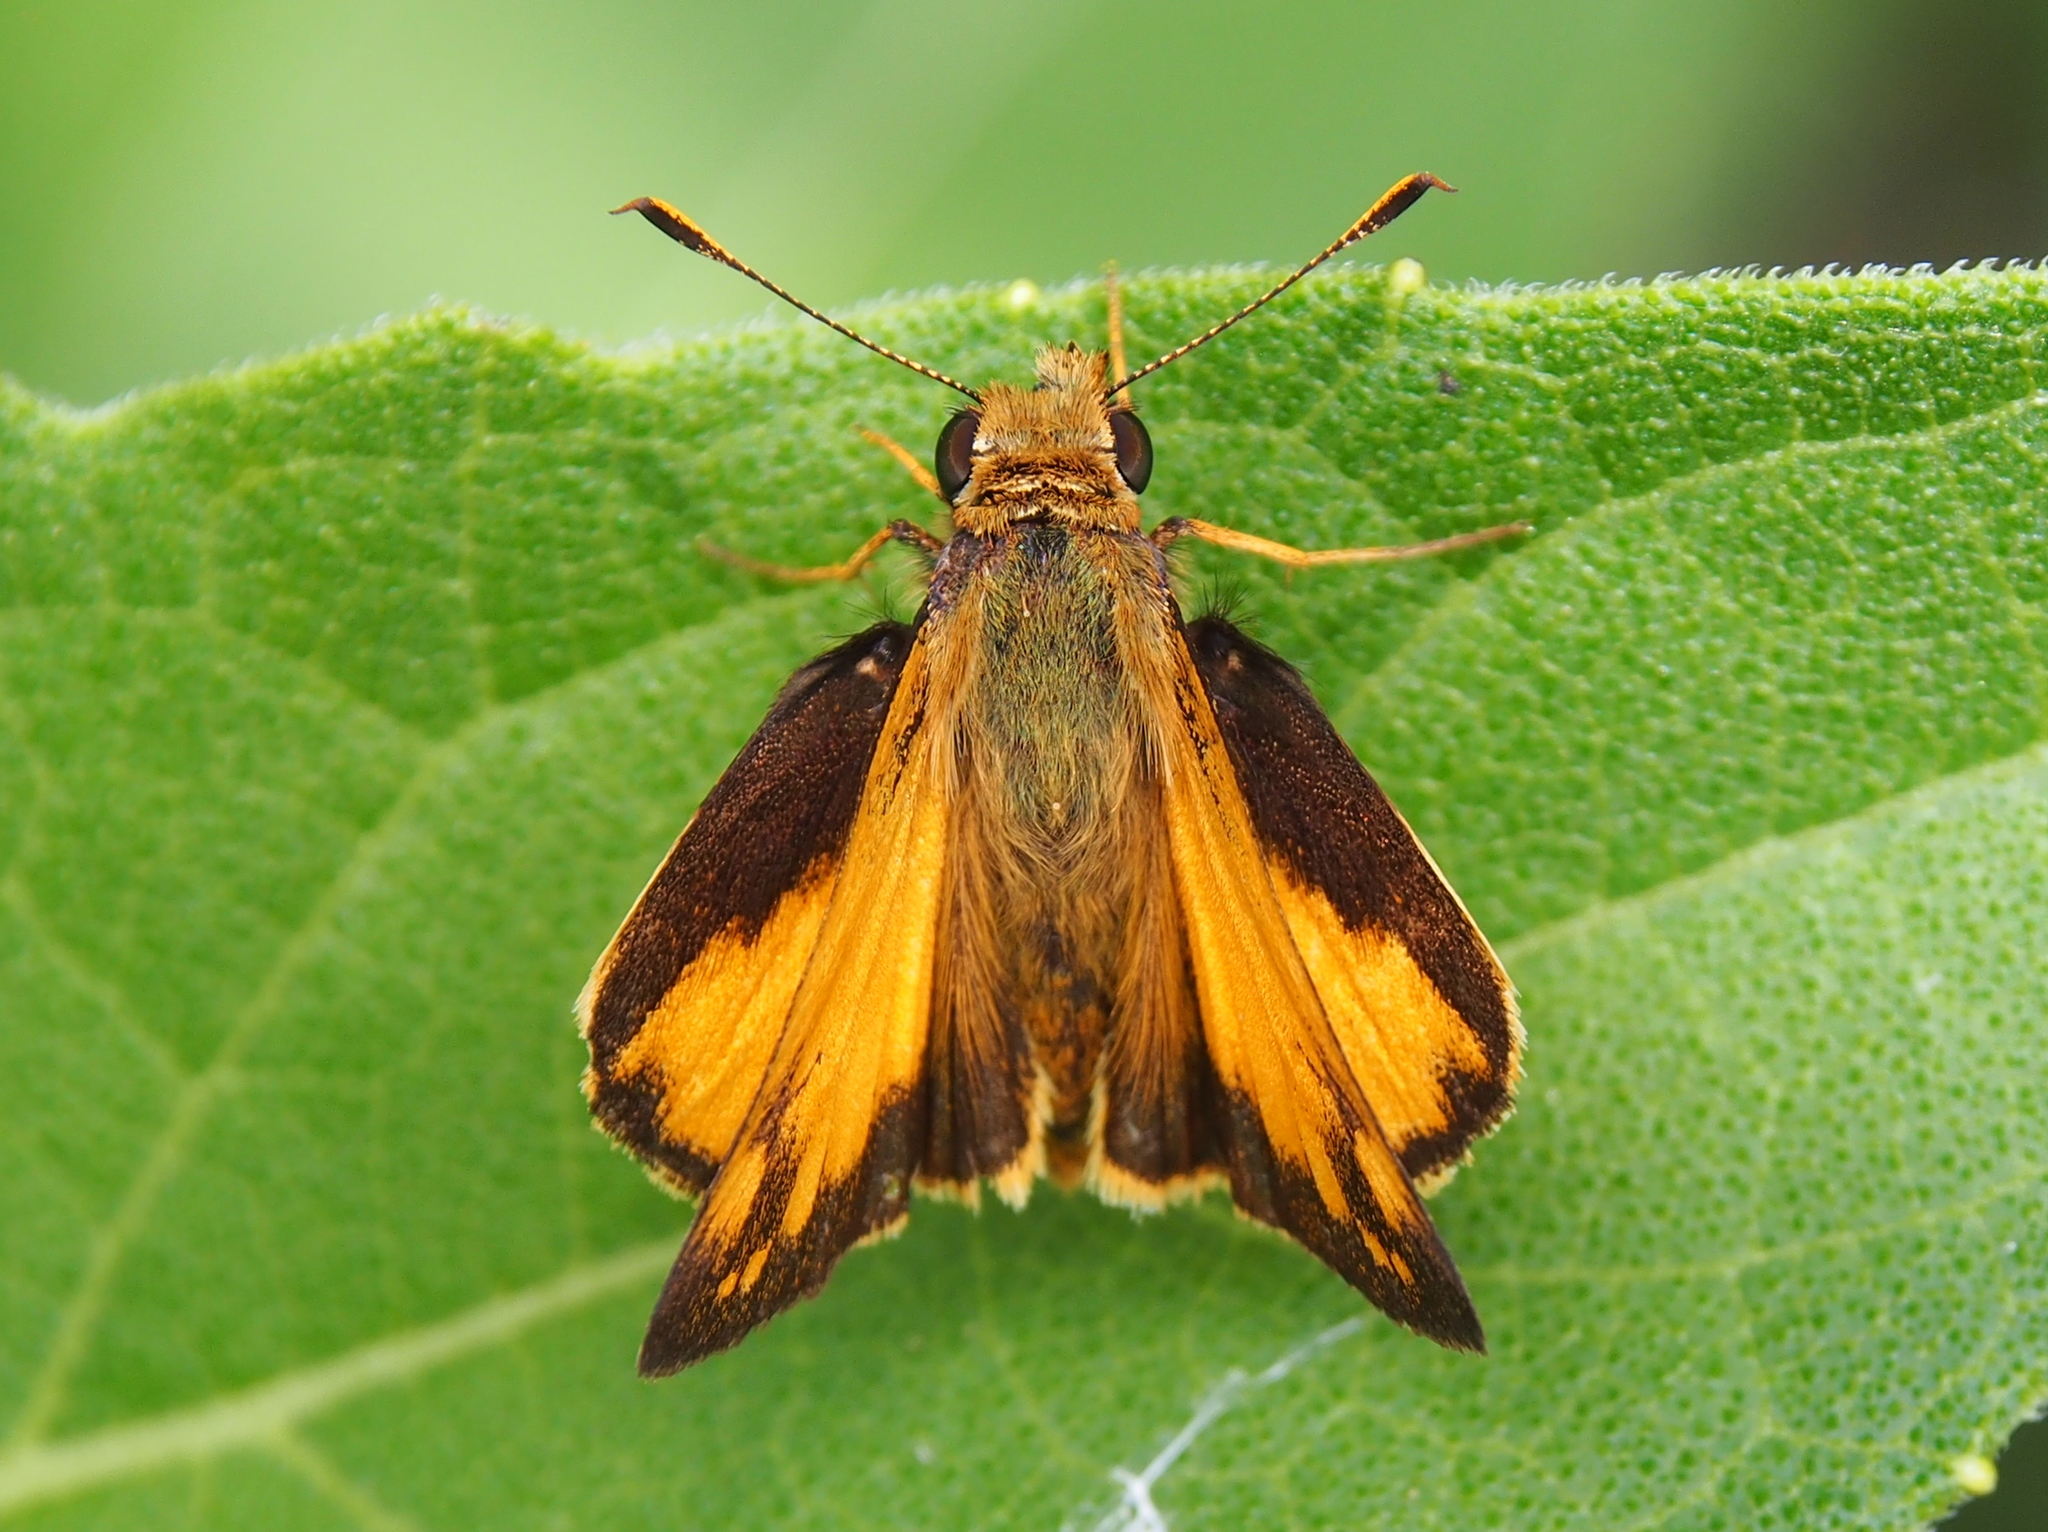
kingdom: Animalia
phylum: Arthropoda
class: Insecta
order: Lepidoptera
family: Hesperiidae
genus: Lon
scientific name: Lon zabulon
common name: Zabulon skipper
